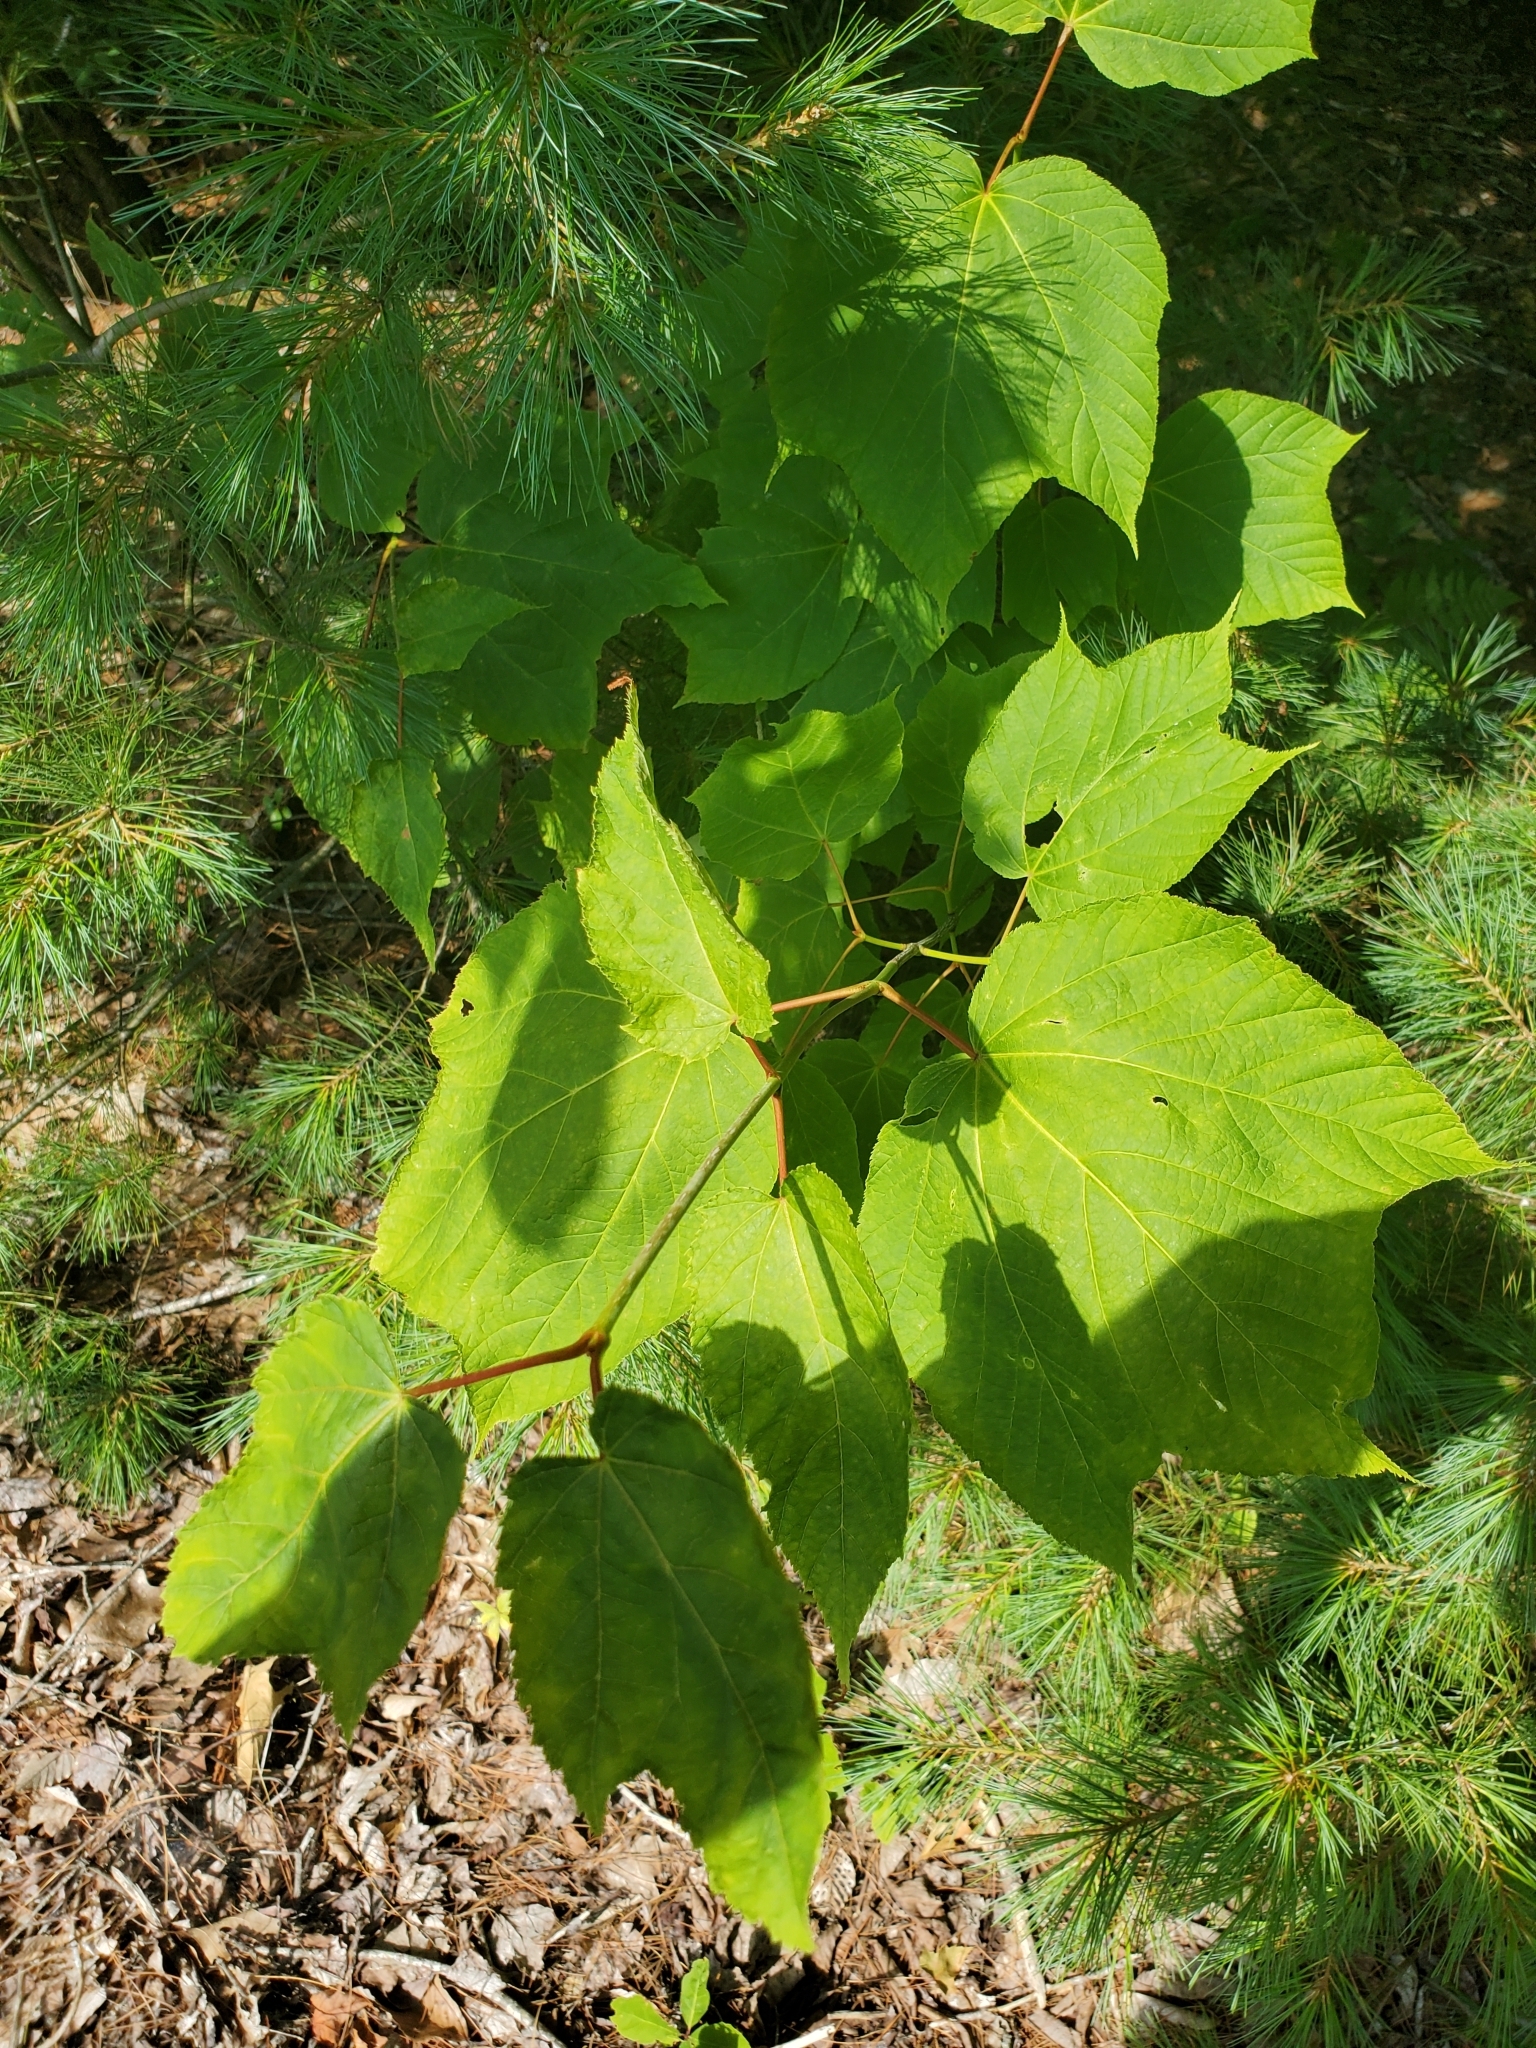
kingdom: Plantae
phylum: Tracheophyta
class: Magnoliopsida
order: Sapindales
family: Sapindaceae
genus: Acer
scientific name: Acer pensylvanicum
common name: Moosewood
